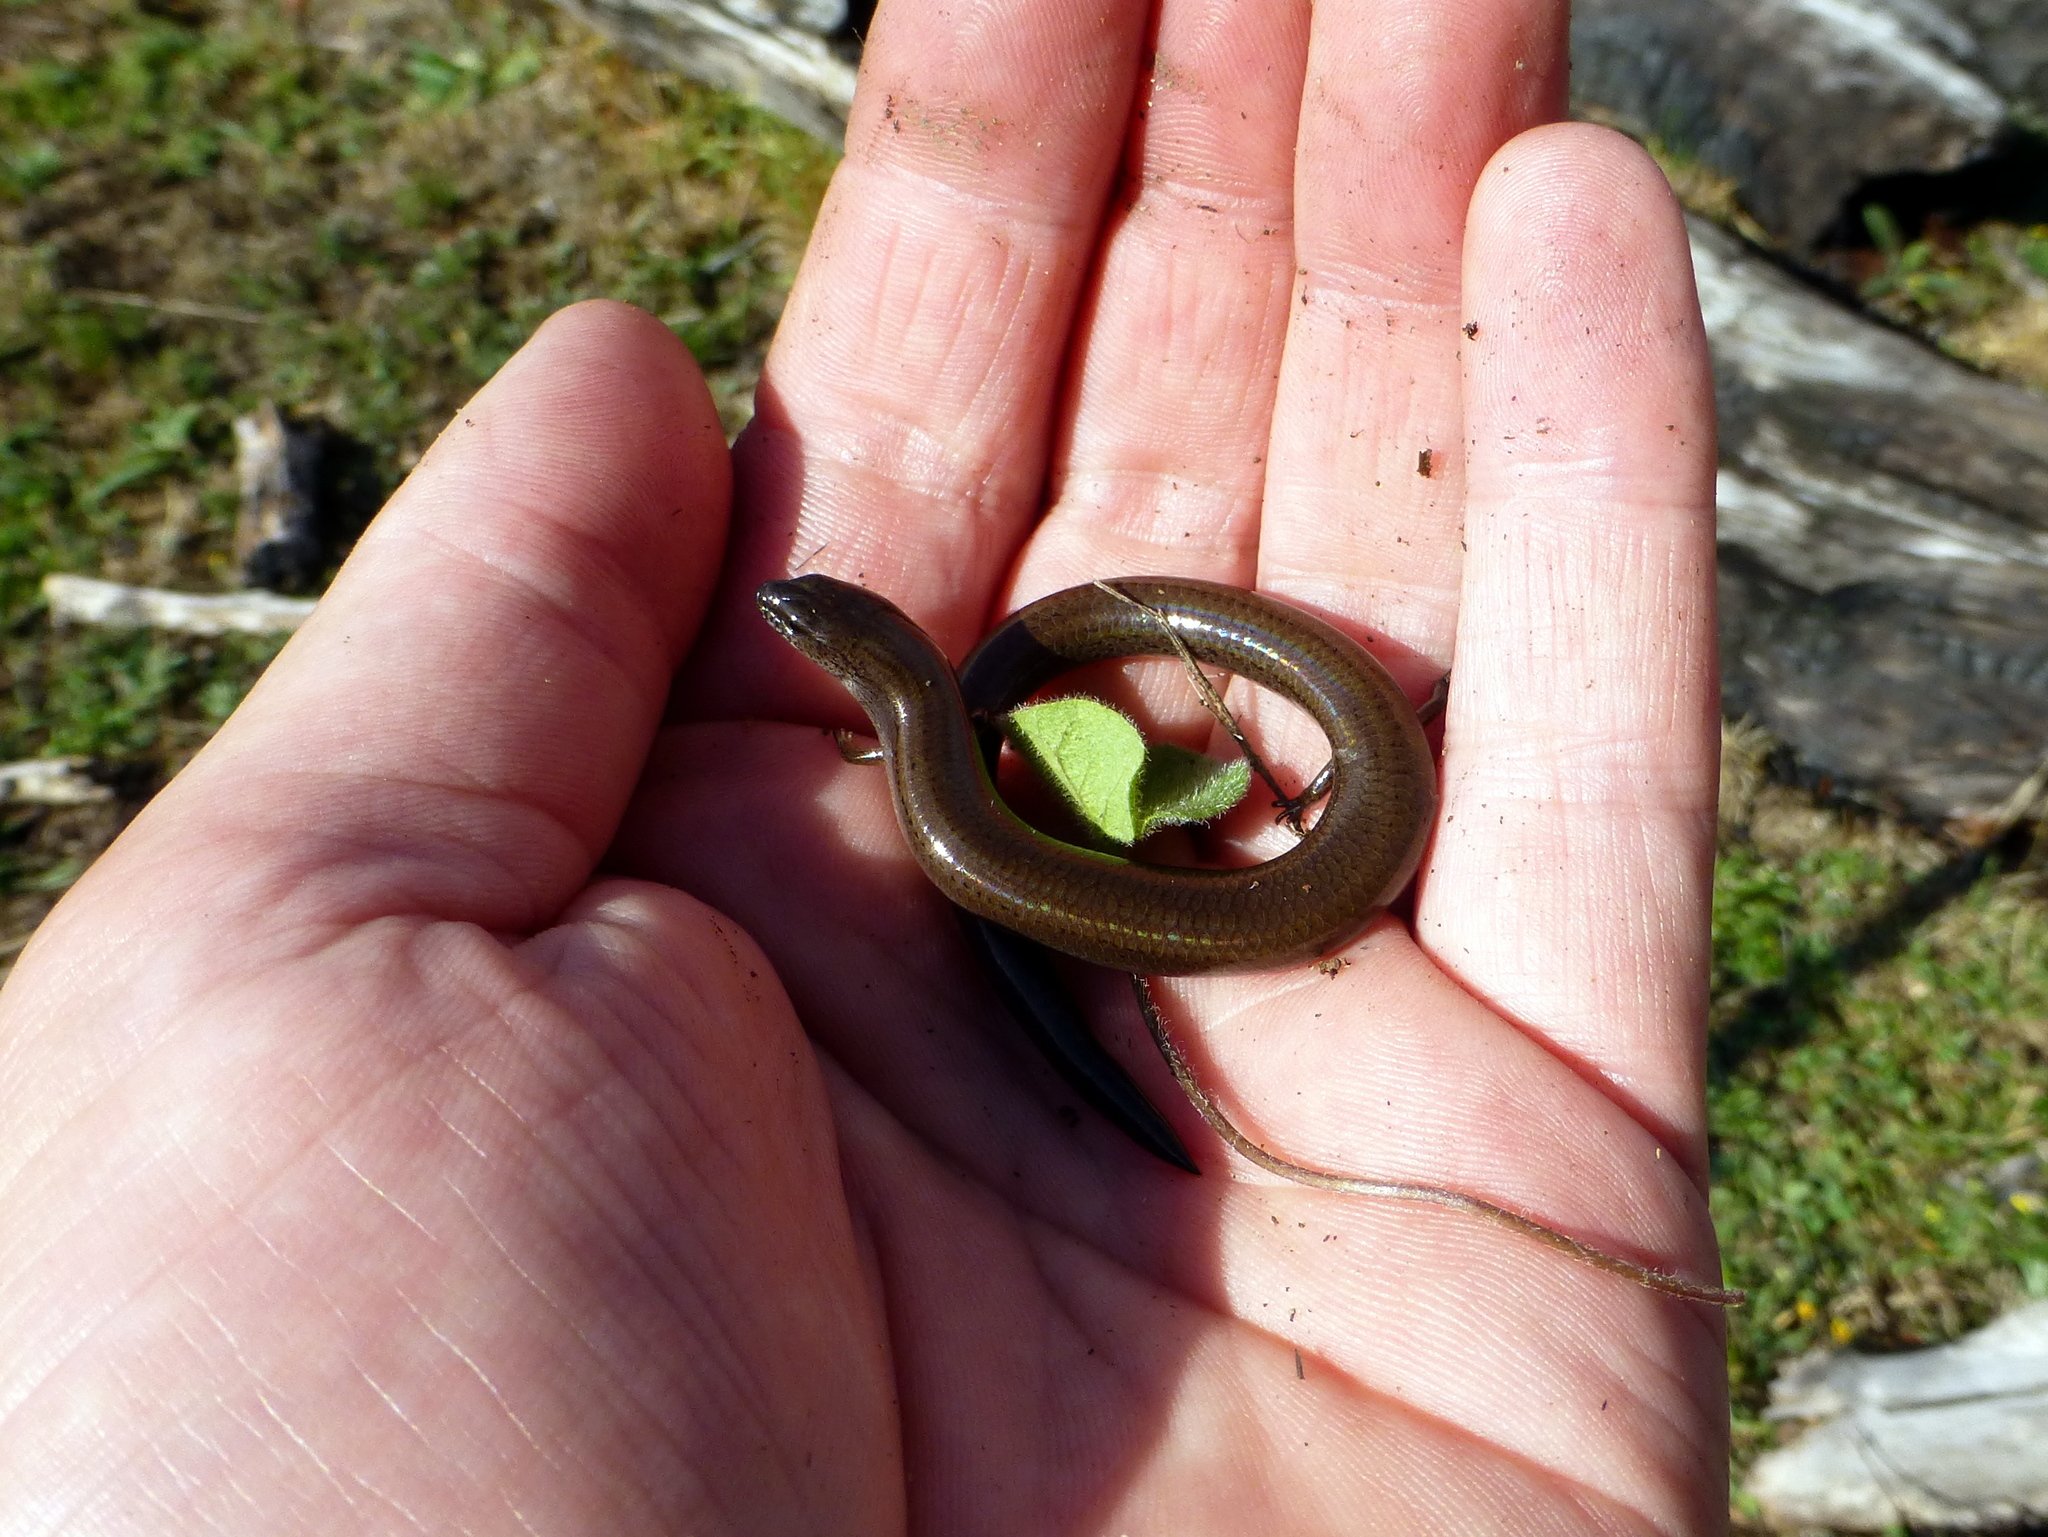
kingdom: Animalia
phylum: Chordata
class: Squamata
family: Scincidae
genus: Hemiergis
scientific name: Hemiergis talbingoensis
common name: Victoria three-toed earless skink
